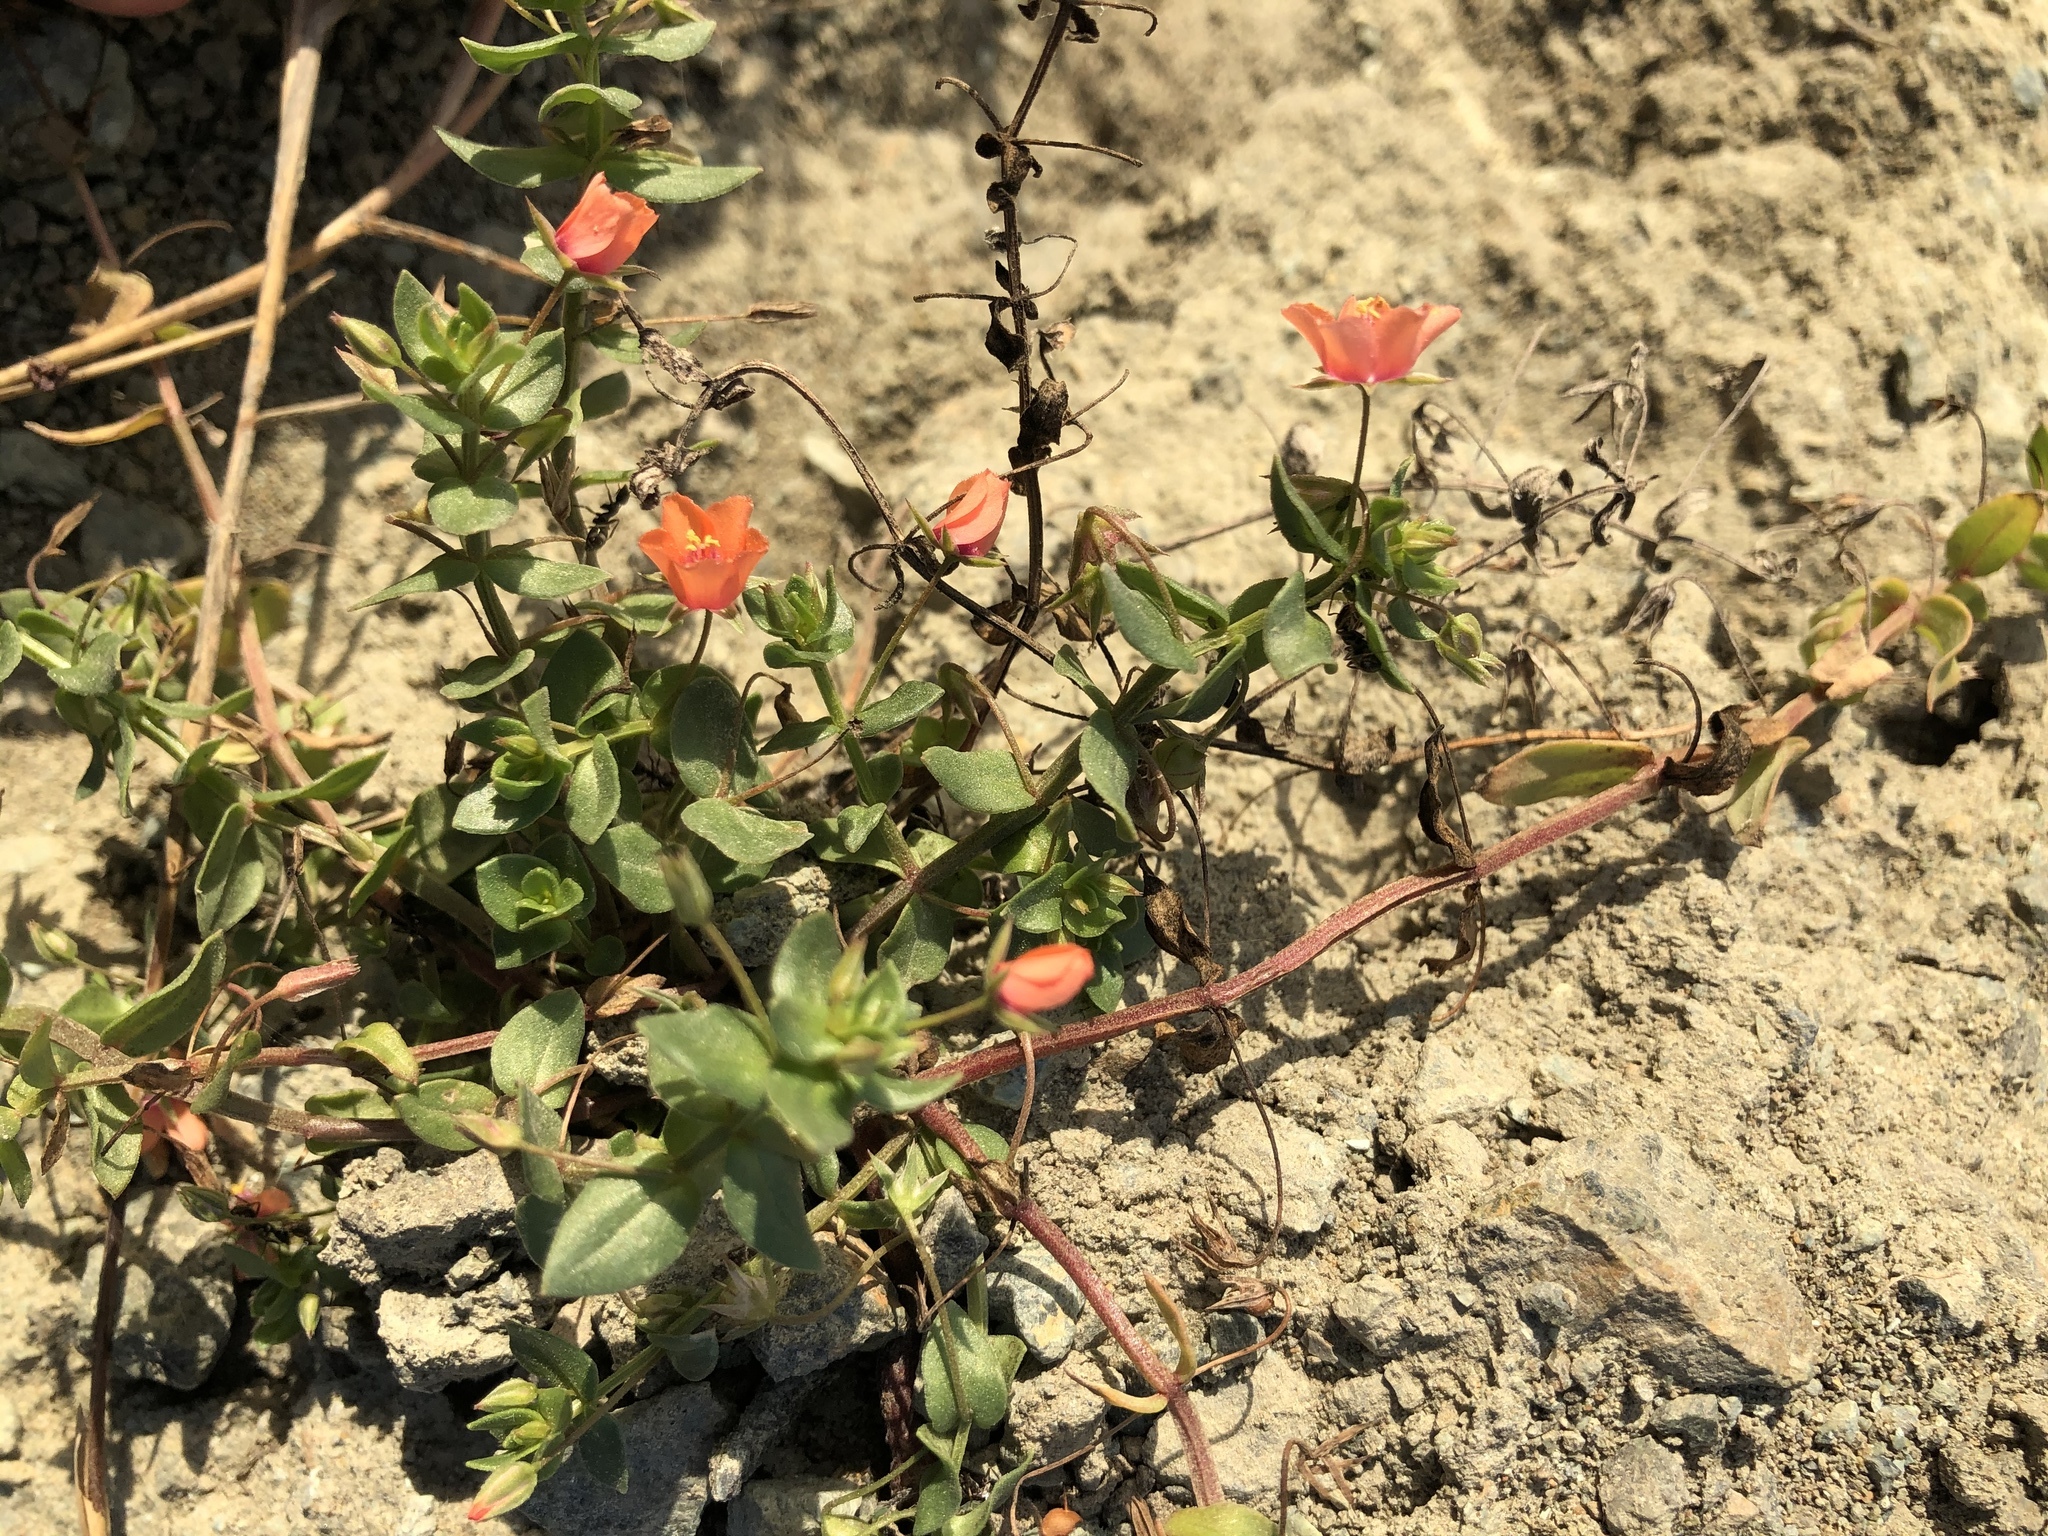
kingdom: Plantae
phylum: Tracheophyta
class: Magnoliopsida
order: Ericales
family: Primulaceae
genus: Lysimachia
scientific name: Lysimachia arvensis
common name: Scarlet pimpernel
